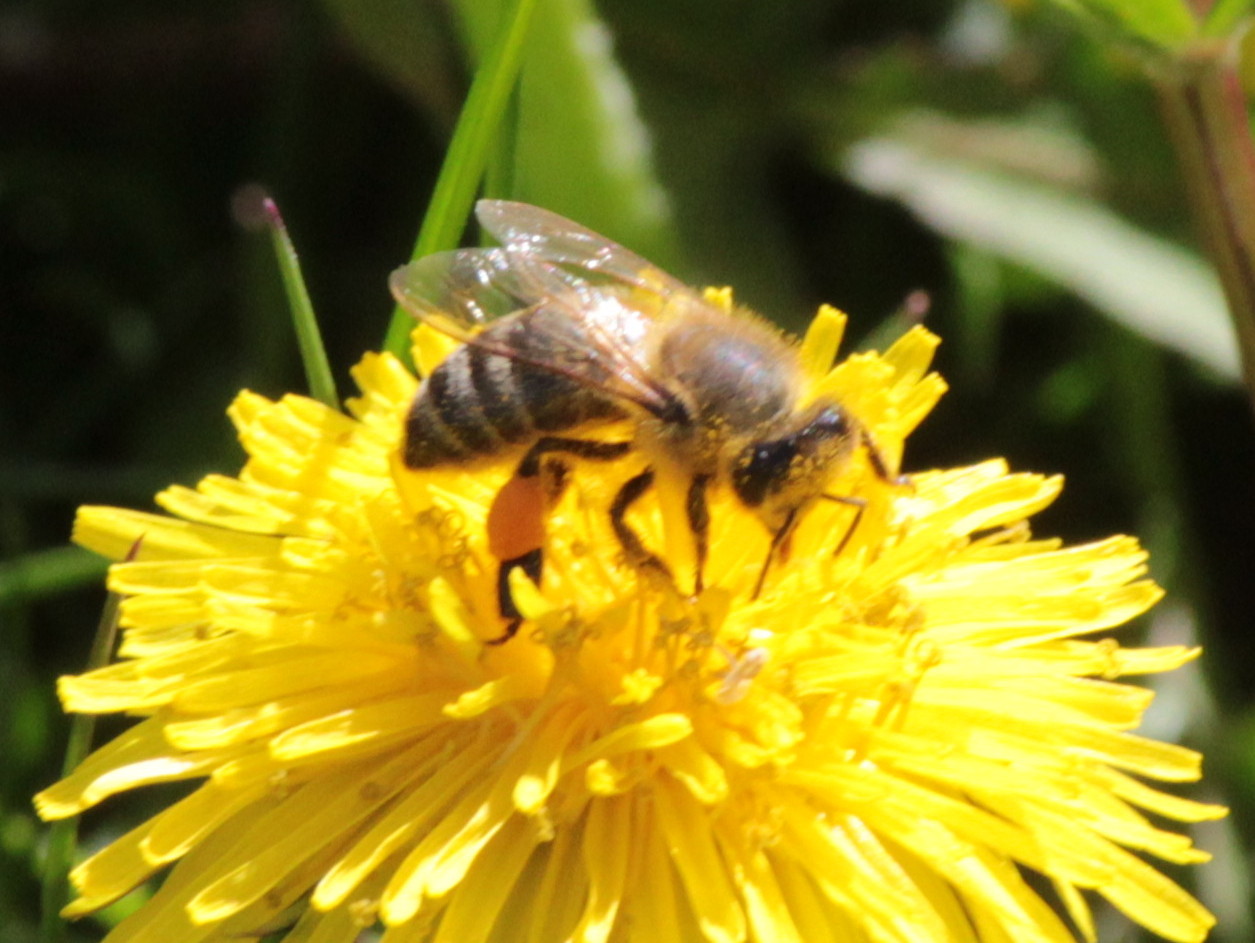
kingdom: Animalia
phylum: Arthropoda
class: Insecta
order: Hymenoptera
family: Apidae
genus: Apis
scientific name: Apis mellifera
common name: Honey bee
